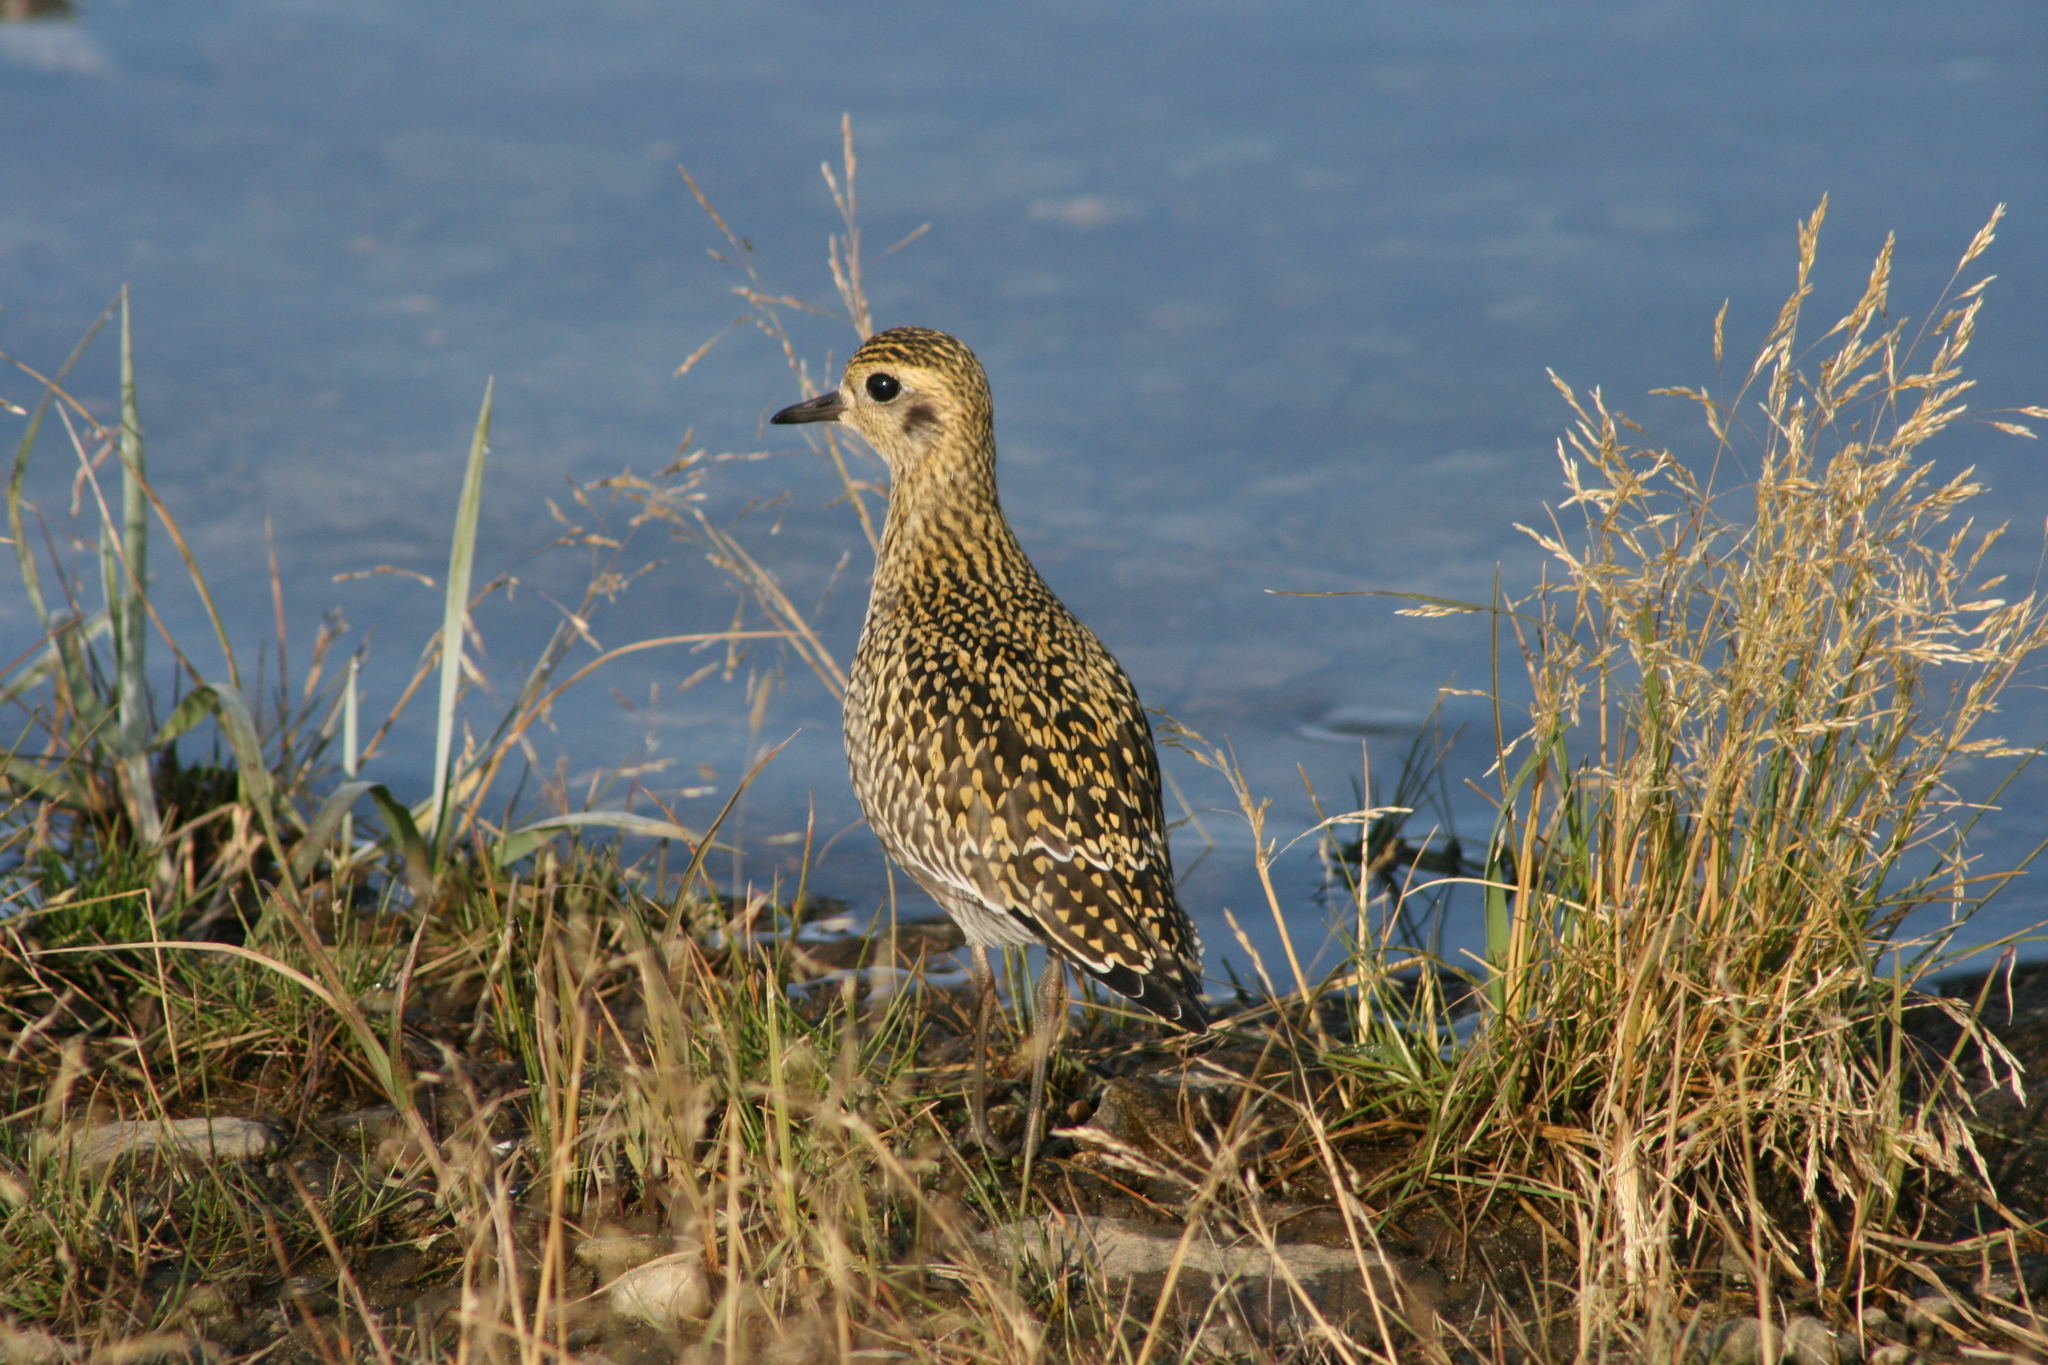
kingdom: Animalia
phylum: Chordata
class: Aves
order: Charadriiformes
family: Charadriidae
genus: Pluvialis
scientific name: Pluvialis fulva
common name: Pacific golden plover
